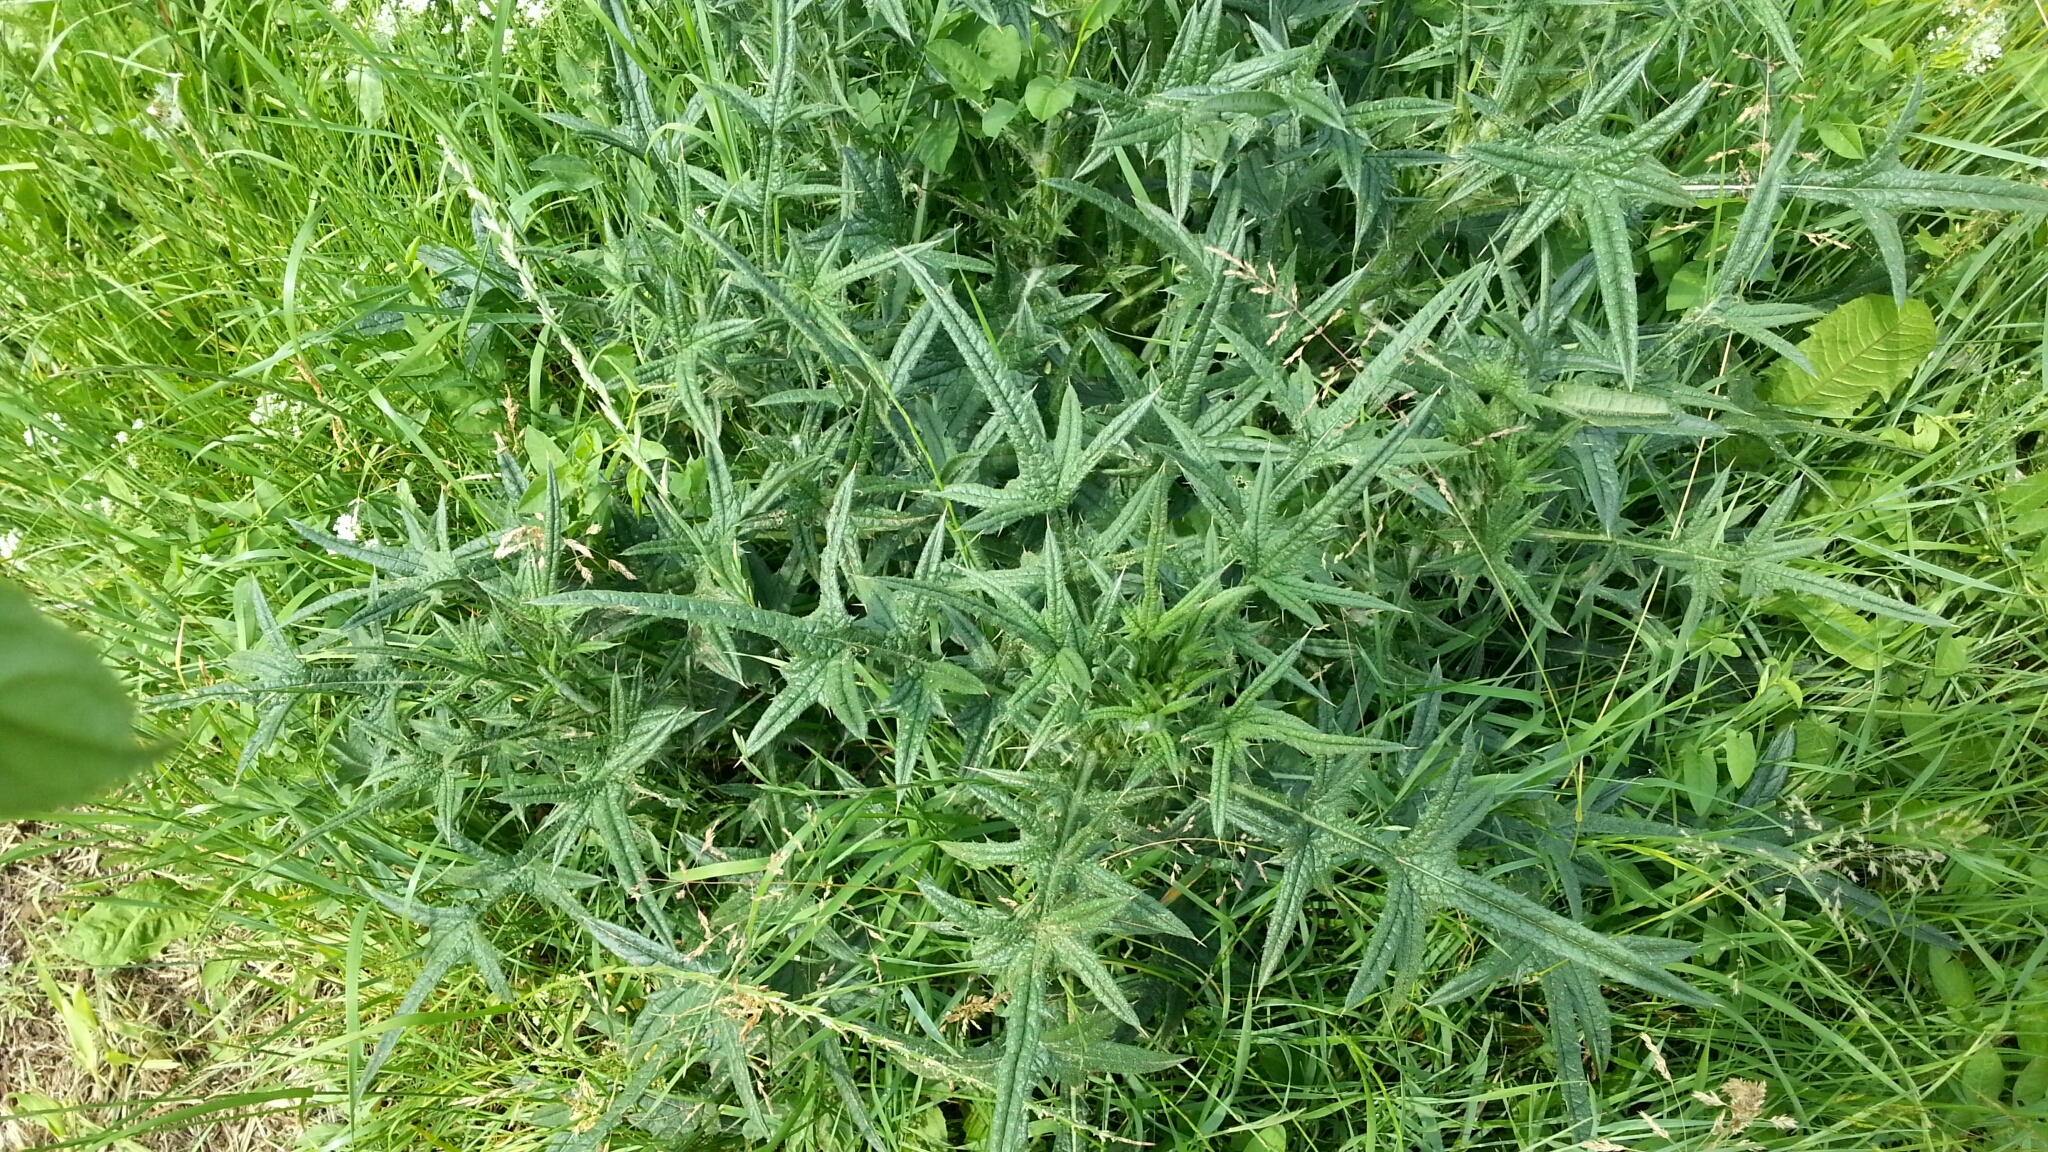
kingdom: Plantae
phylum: Tracheophyta
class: Magnoliopsida
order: Asterales
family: Asteraceae
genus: Cirsium
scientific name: Cirsium vulgare
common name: Bull thistle
